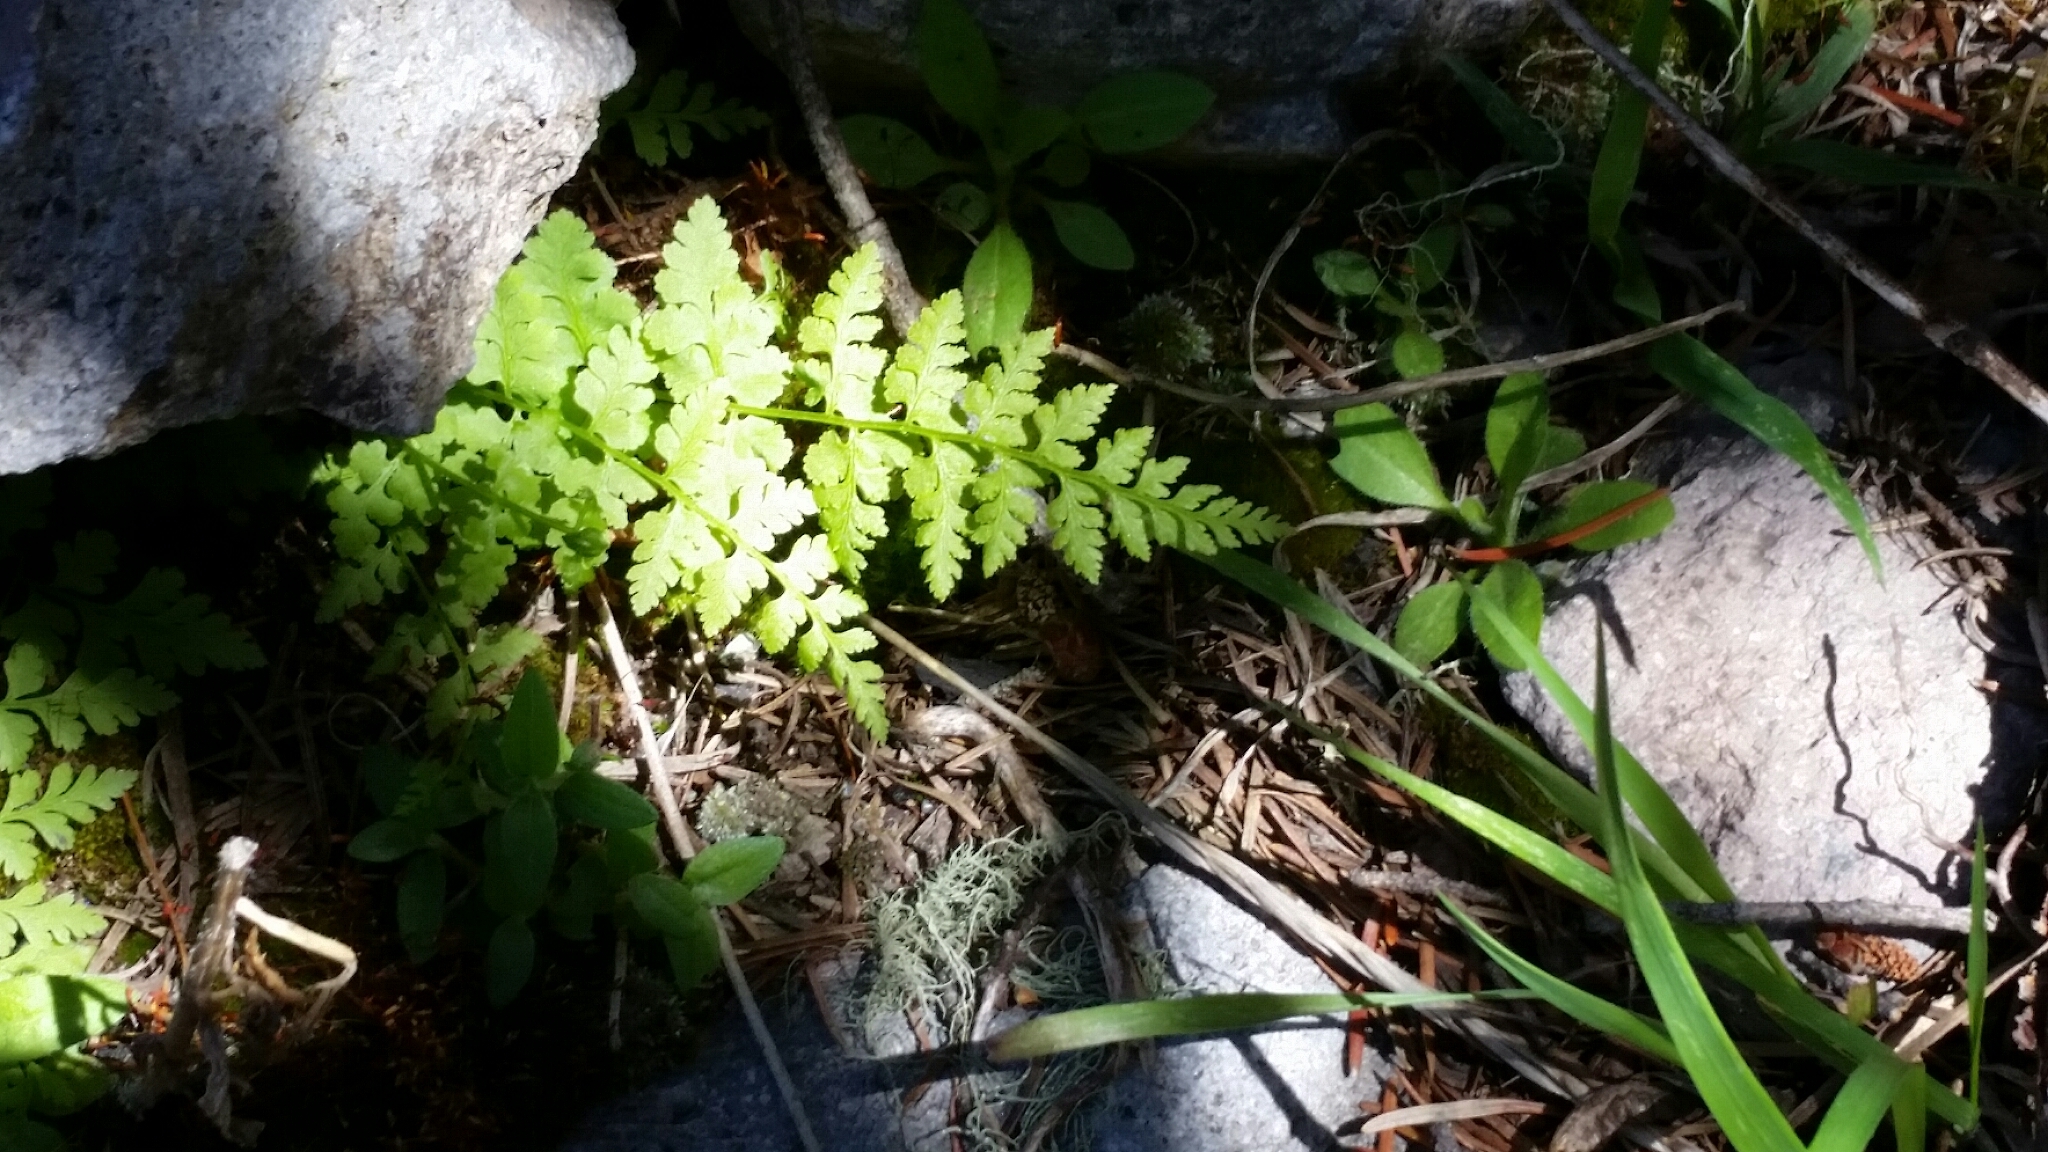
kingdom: Plantae
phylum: Tracheophyta
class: Polypodiopsida
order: Polypodiales
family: Cystopteridaceae
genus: Cystopteris
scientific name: Cystopteris reevesiana
